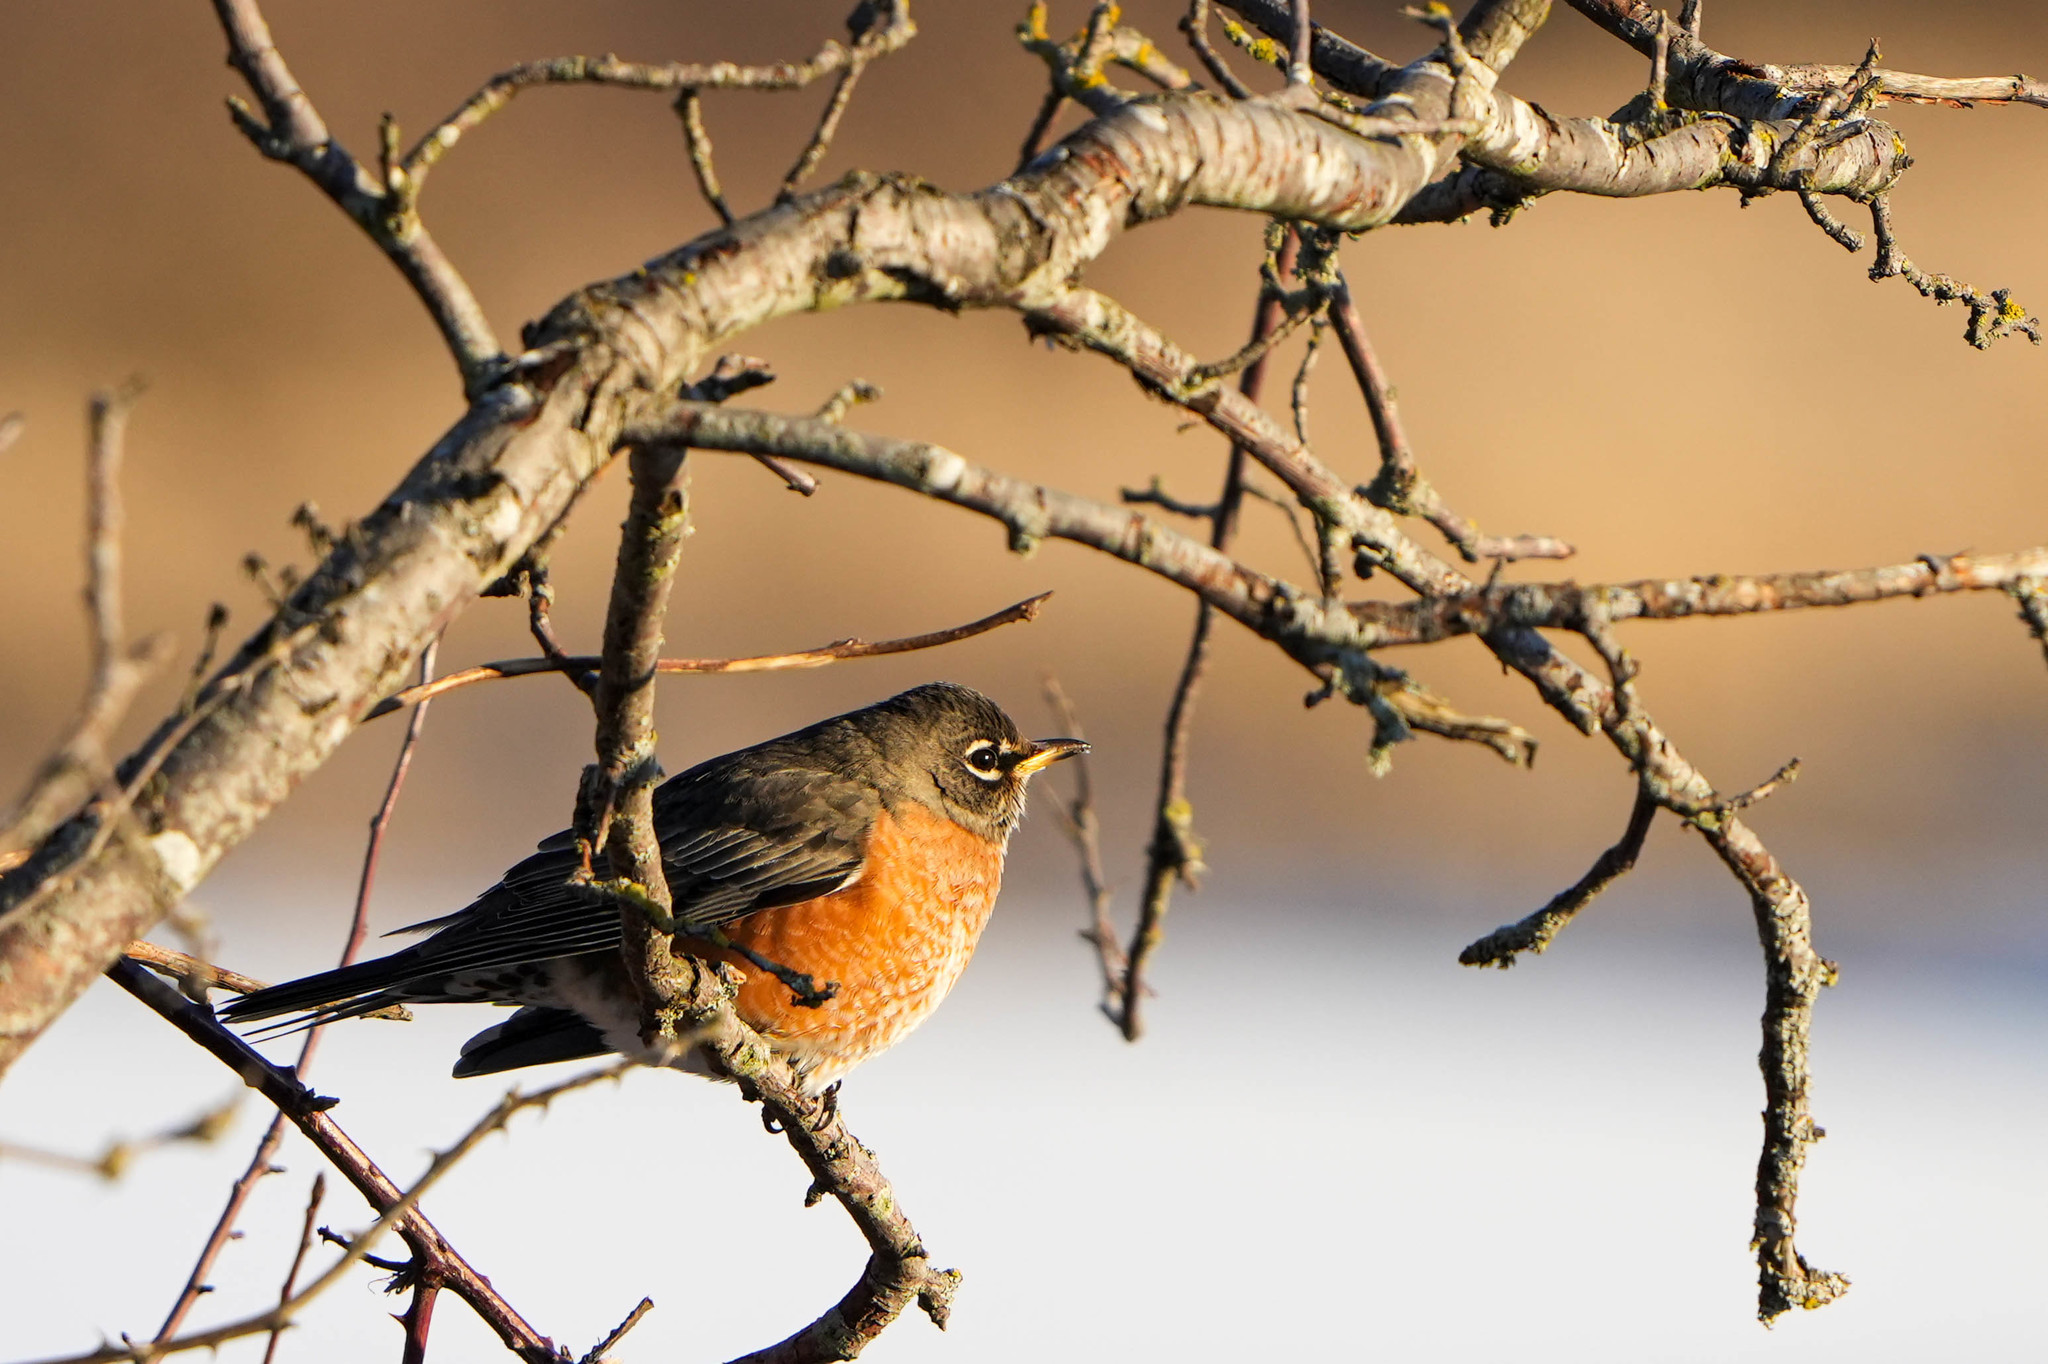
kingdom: Animalia
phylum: Chordata
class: Aves
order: Passeriformes
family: Turdidae
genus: Turdus
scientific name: Turdus migratorius
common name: American robin
